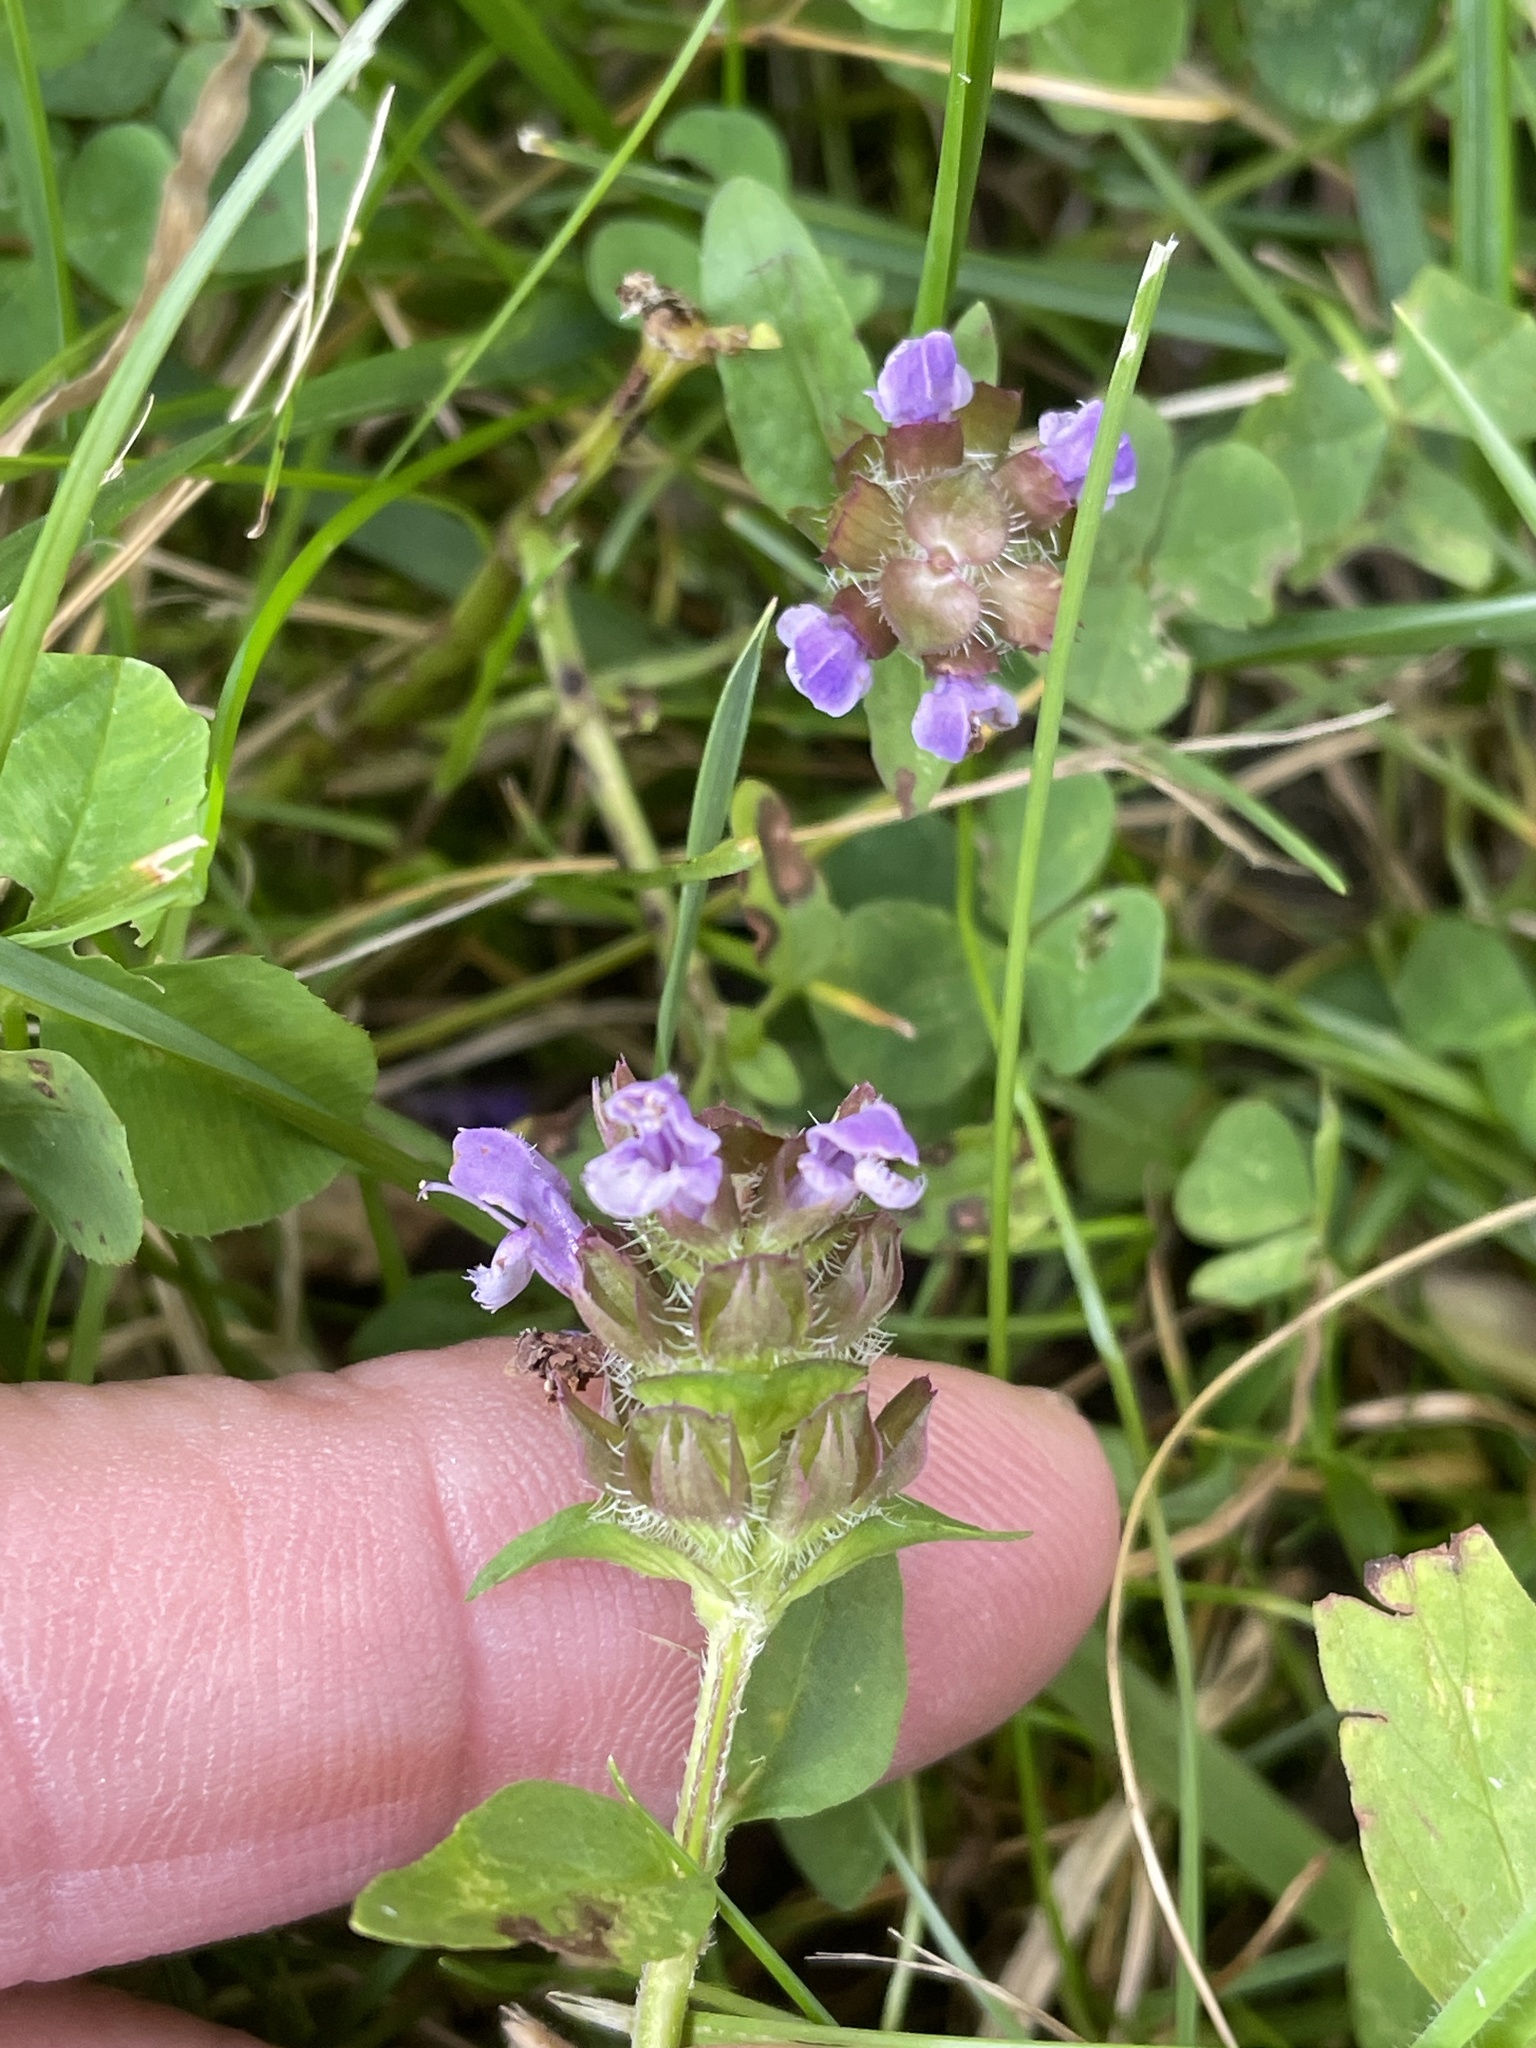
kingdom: Plantae
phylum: Tracheophyta
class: Magnoliopsida
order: Lamiales
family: Lamiaceae
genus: Prunella
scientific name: Prunella vulgaris
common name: Heal-all
